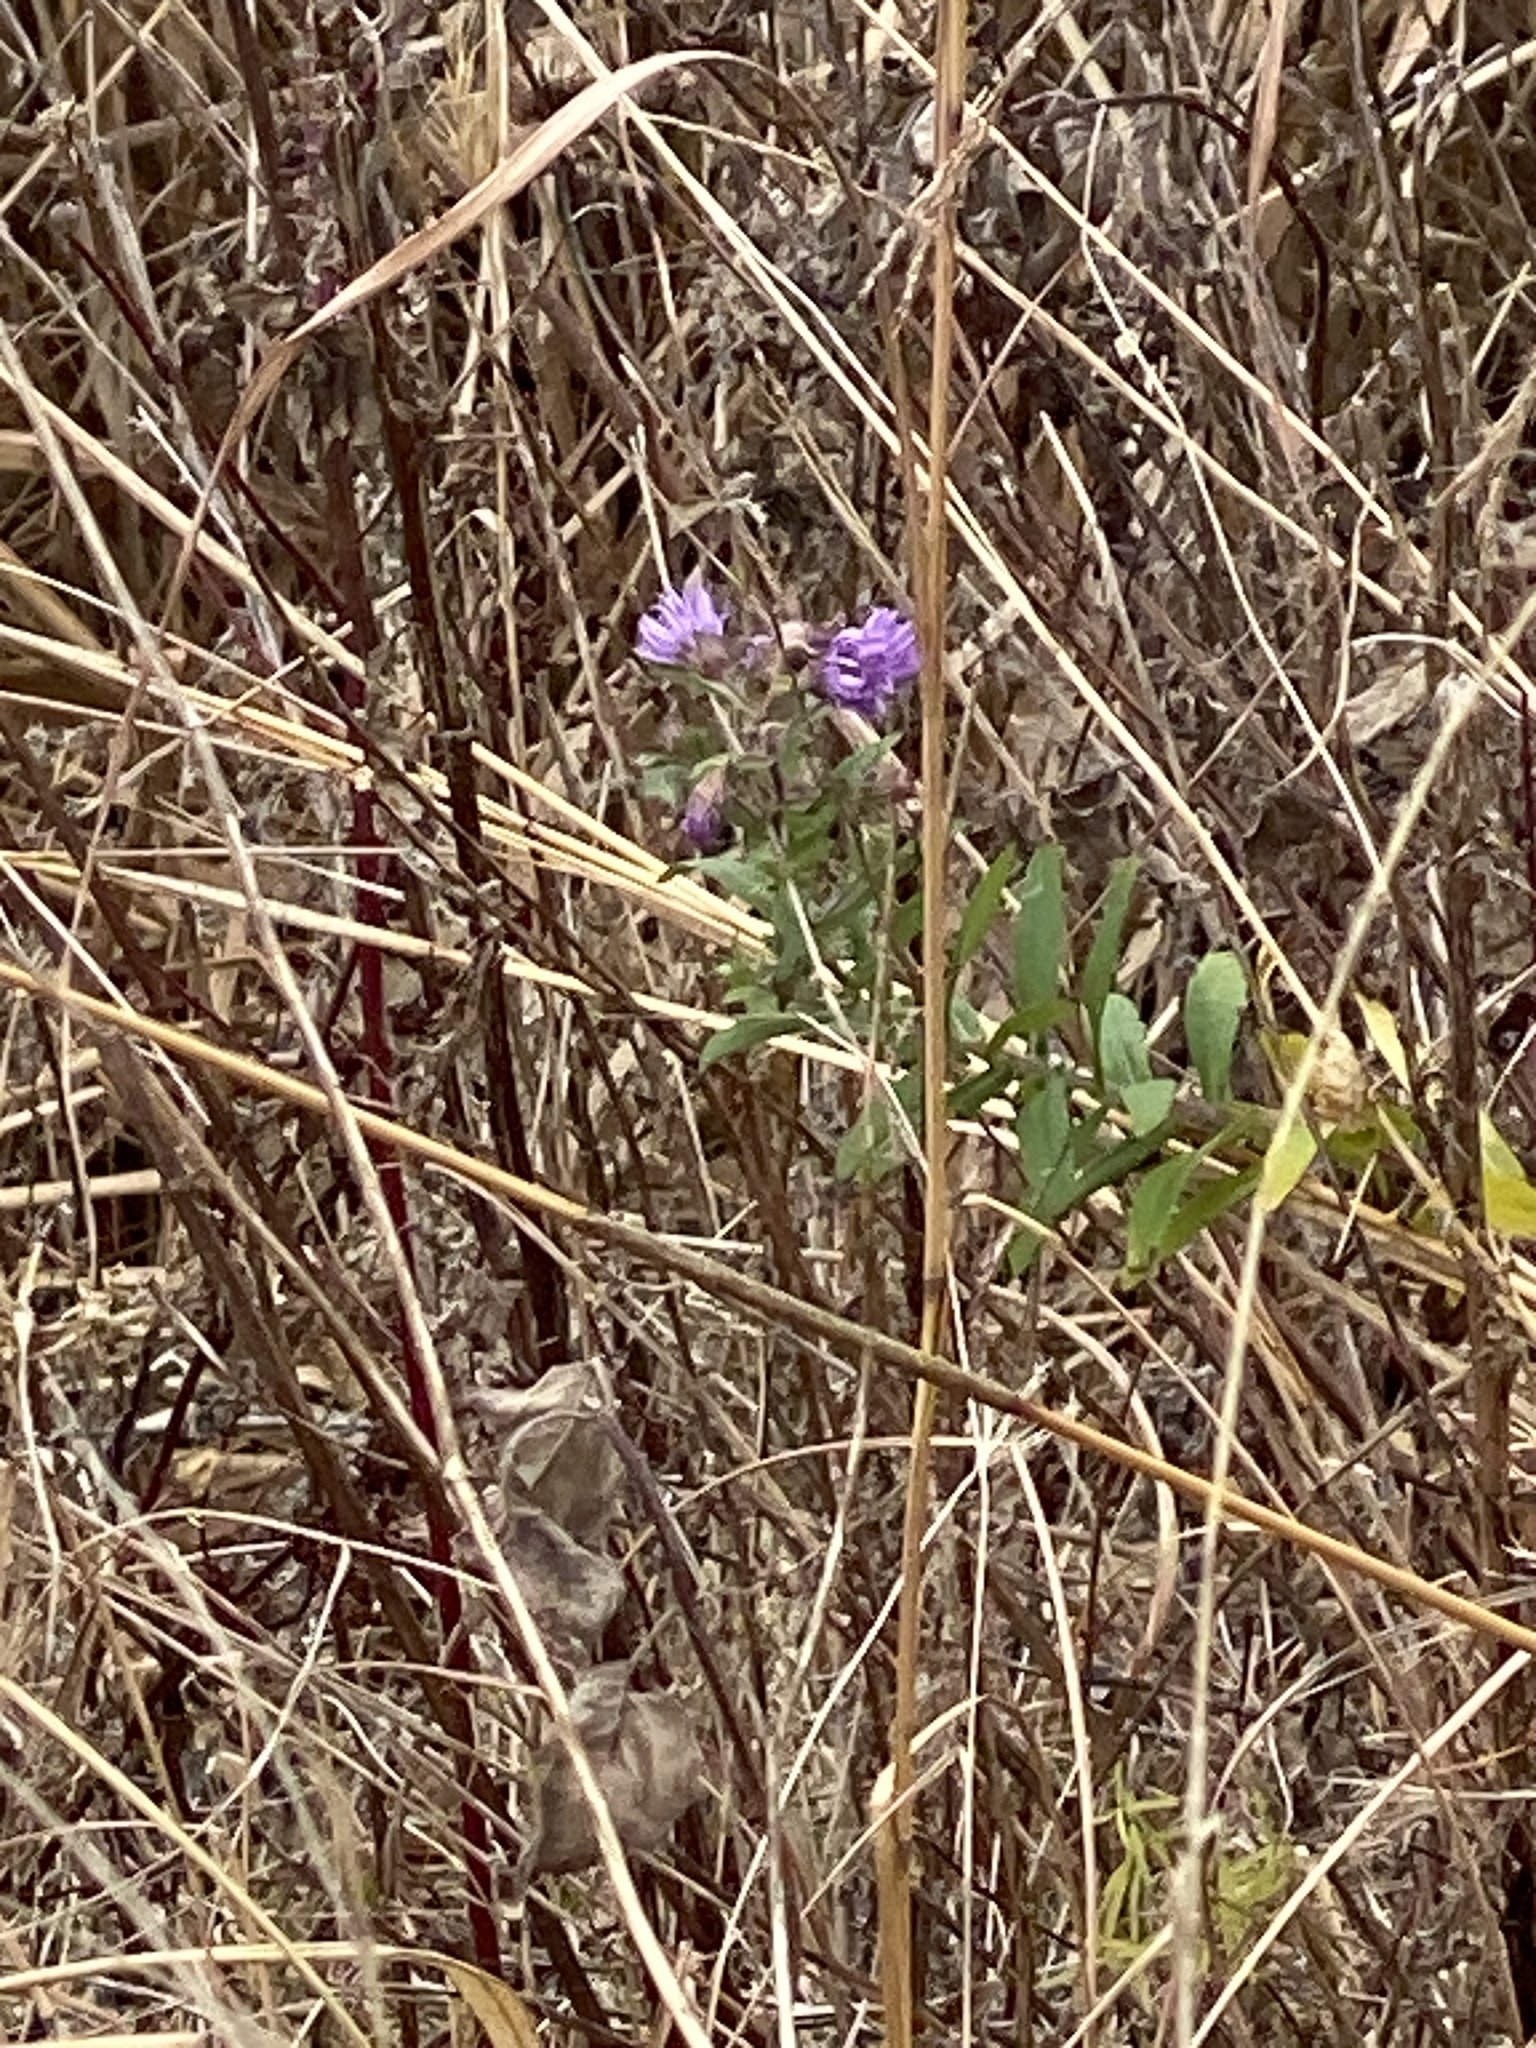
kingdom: Plantae
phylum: Tracheophyta
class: Magnoliopsida
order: Asterales
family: Asteraceae
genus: Symphyotrichum
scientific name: Symphyotrichum novae-angliae
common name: Michaelmas daisy
